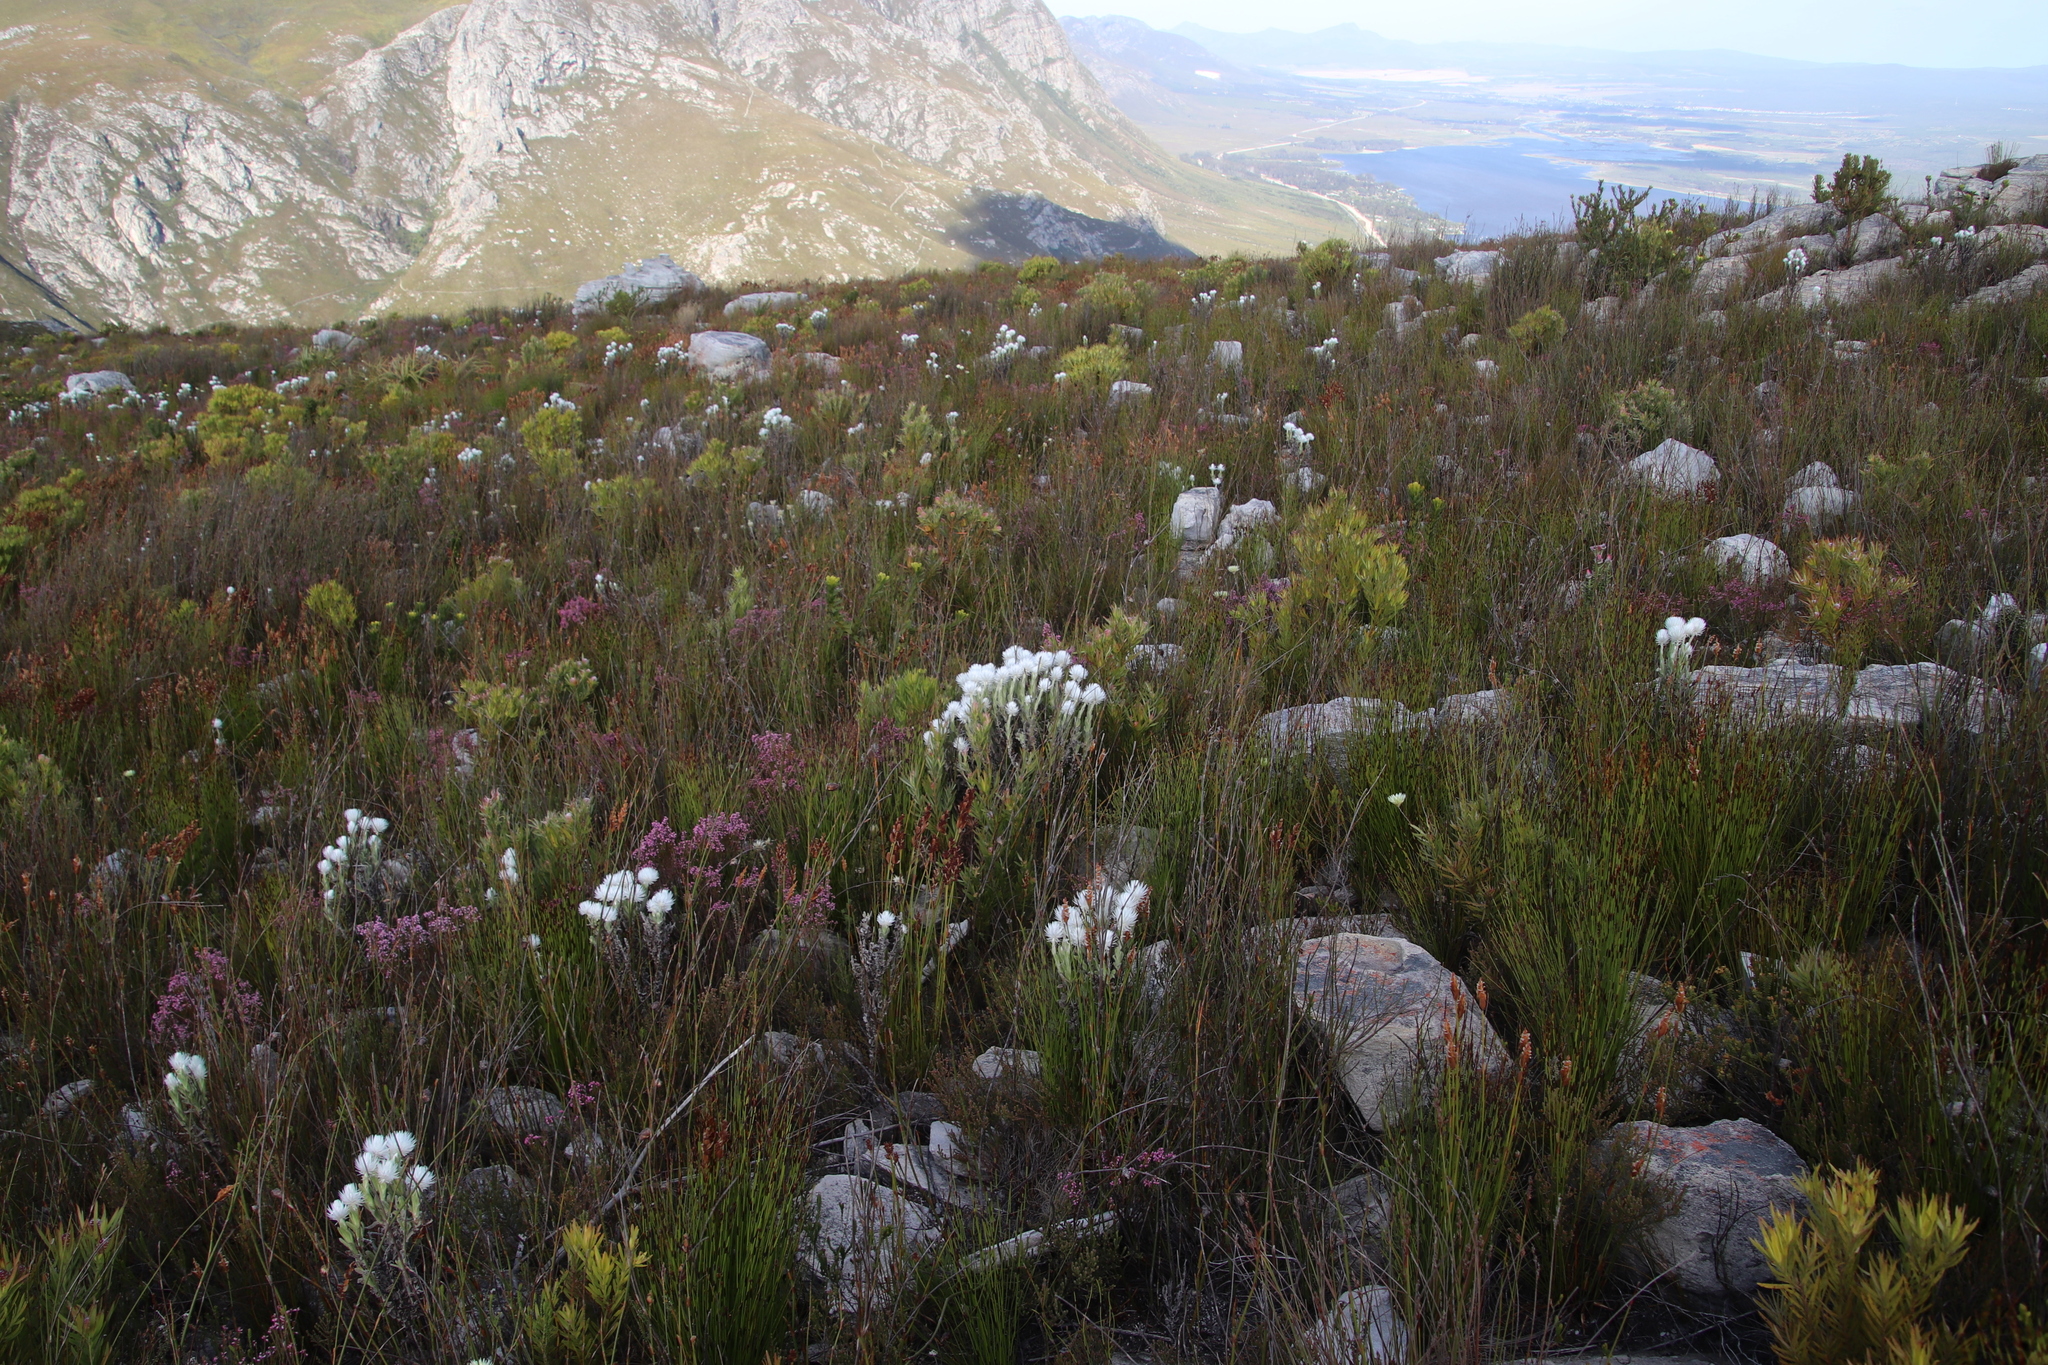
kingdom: Plantae
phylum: Tracheophyta
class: Magnoliopsida
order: Asterales
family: Asteraceae
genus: Syncarpha
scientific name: Syncarpha vestita
